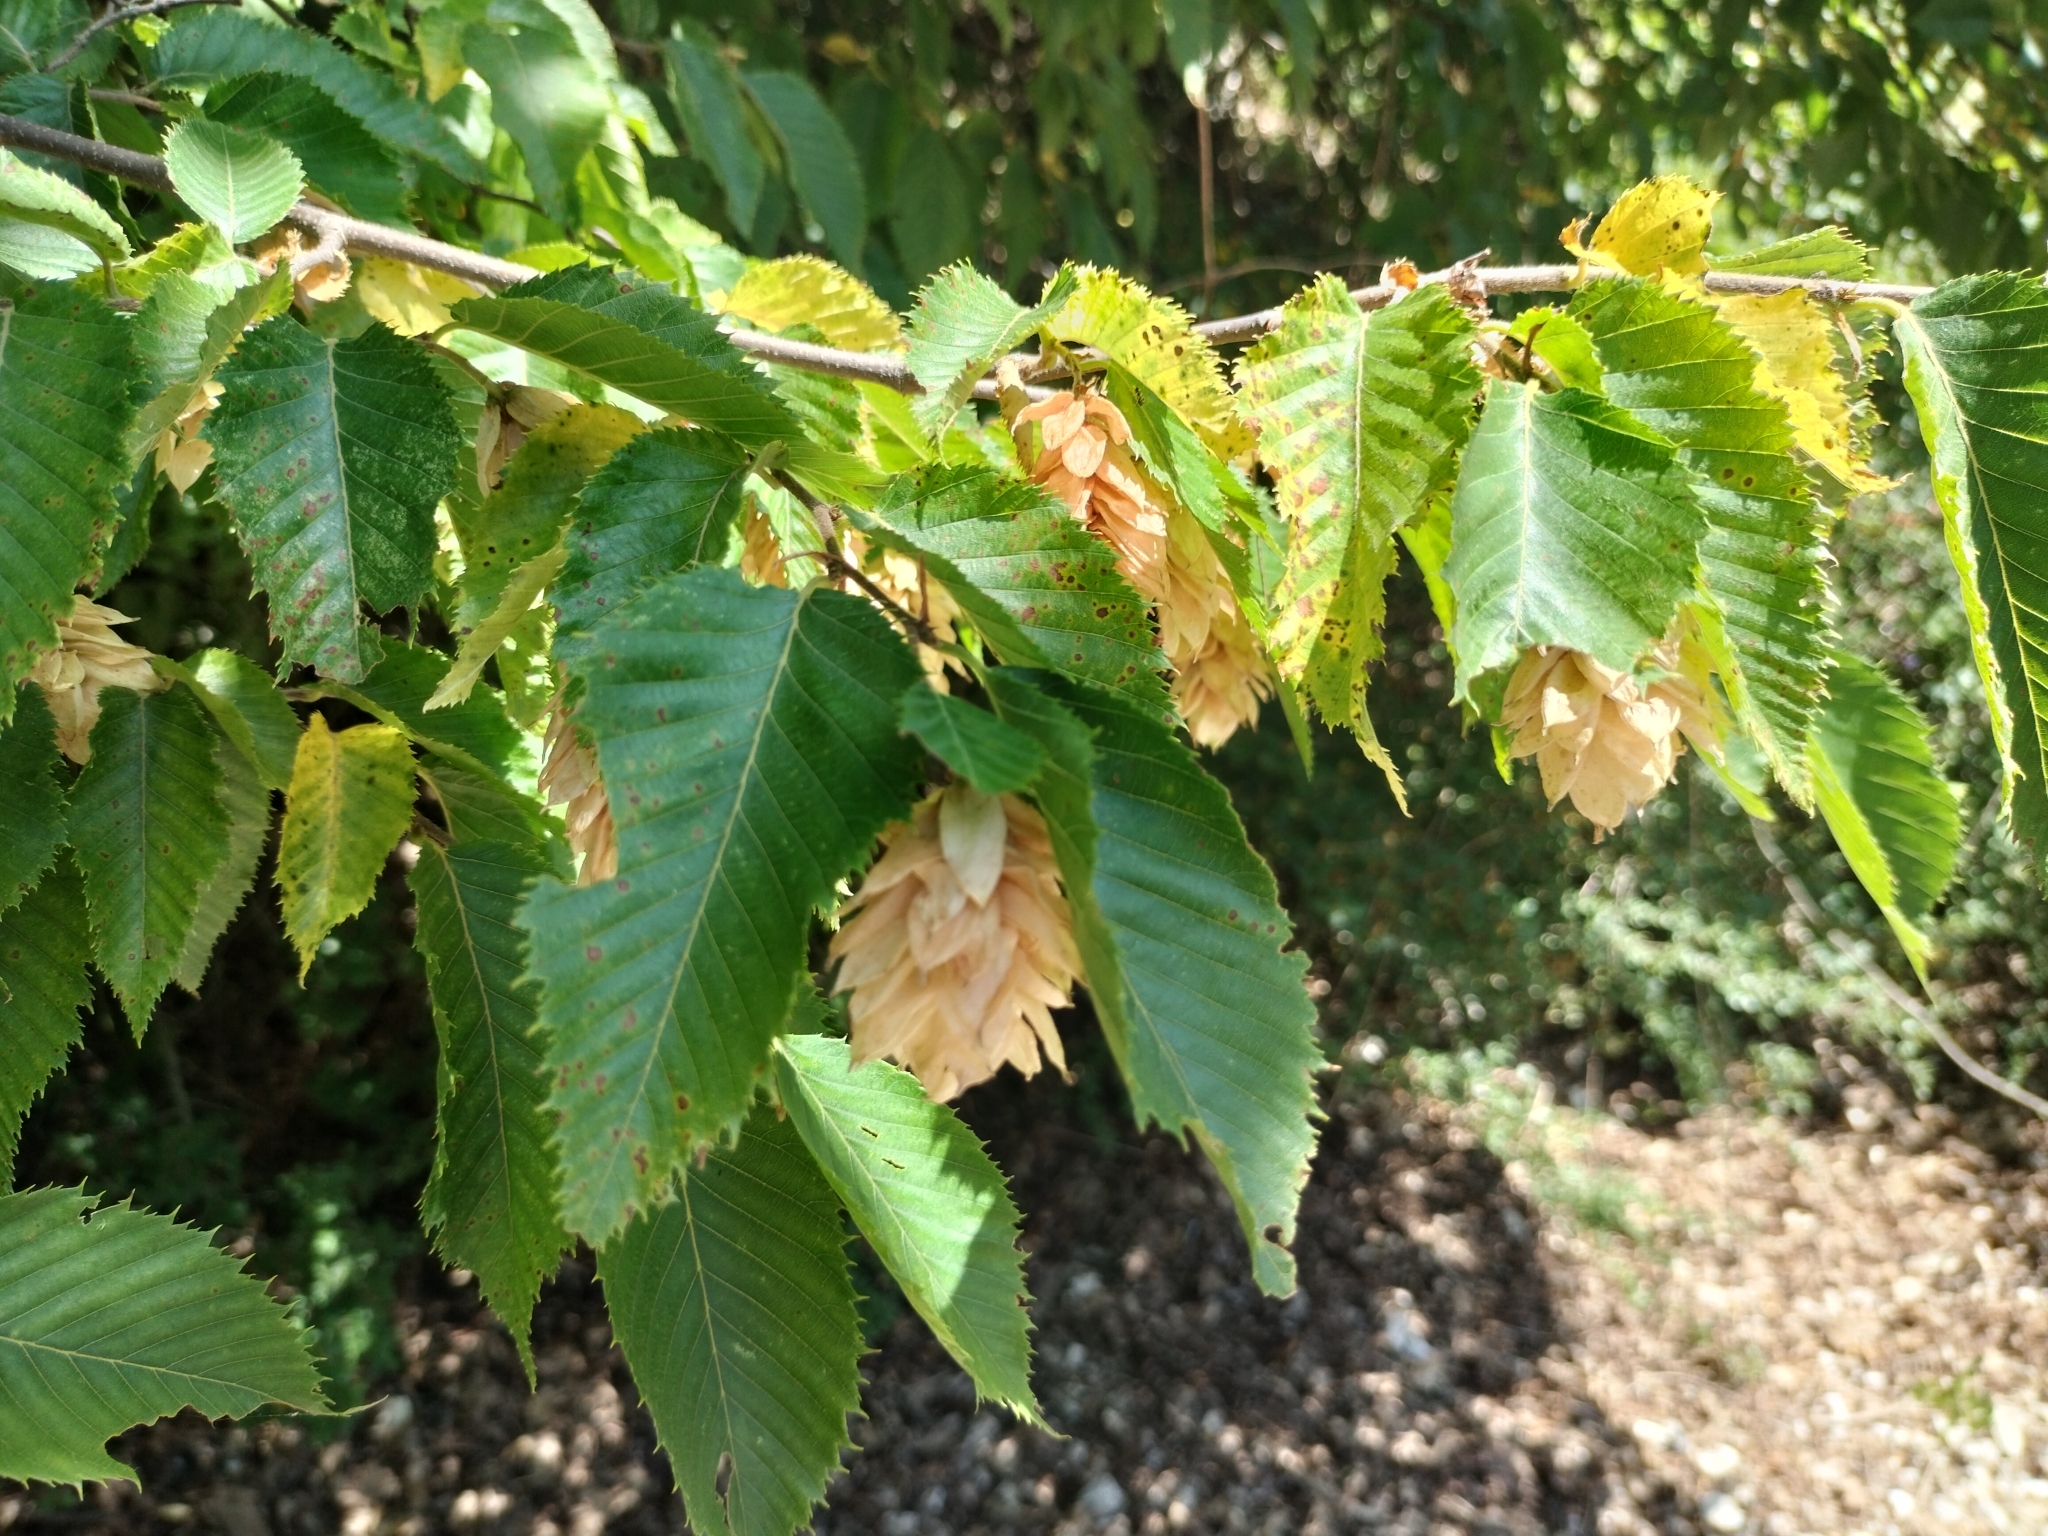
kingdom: Plantae
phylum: Tracheophyta
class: Magnoliopsida
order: Fagales
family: Betulaceae
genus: Ostrya
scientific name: Ostrya carpinifolia
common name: European hop-hornbeam
